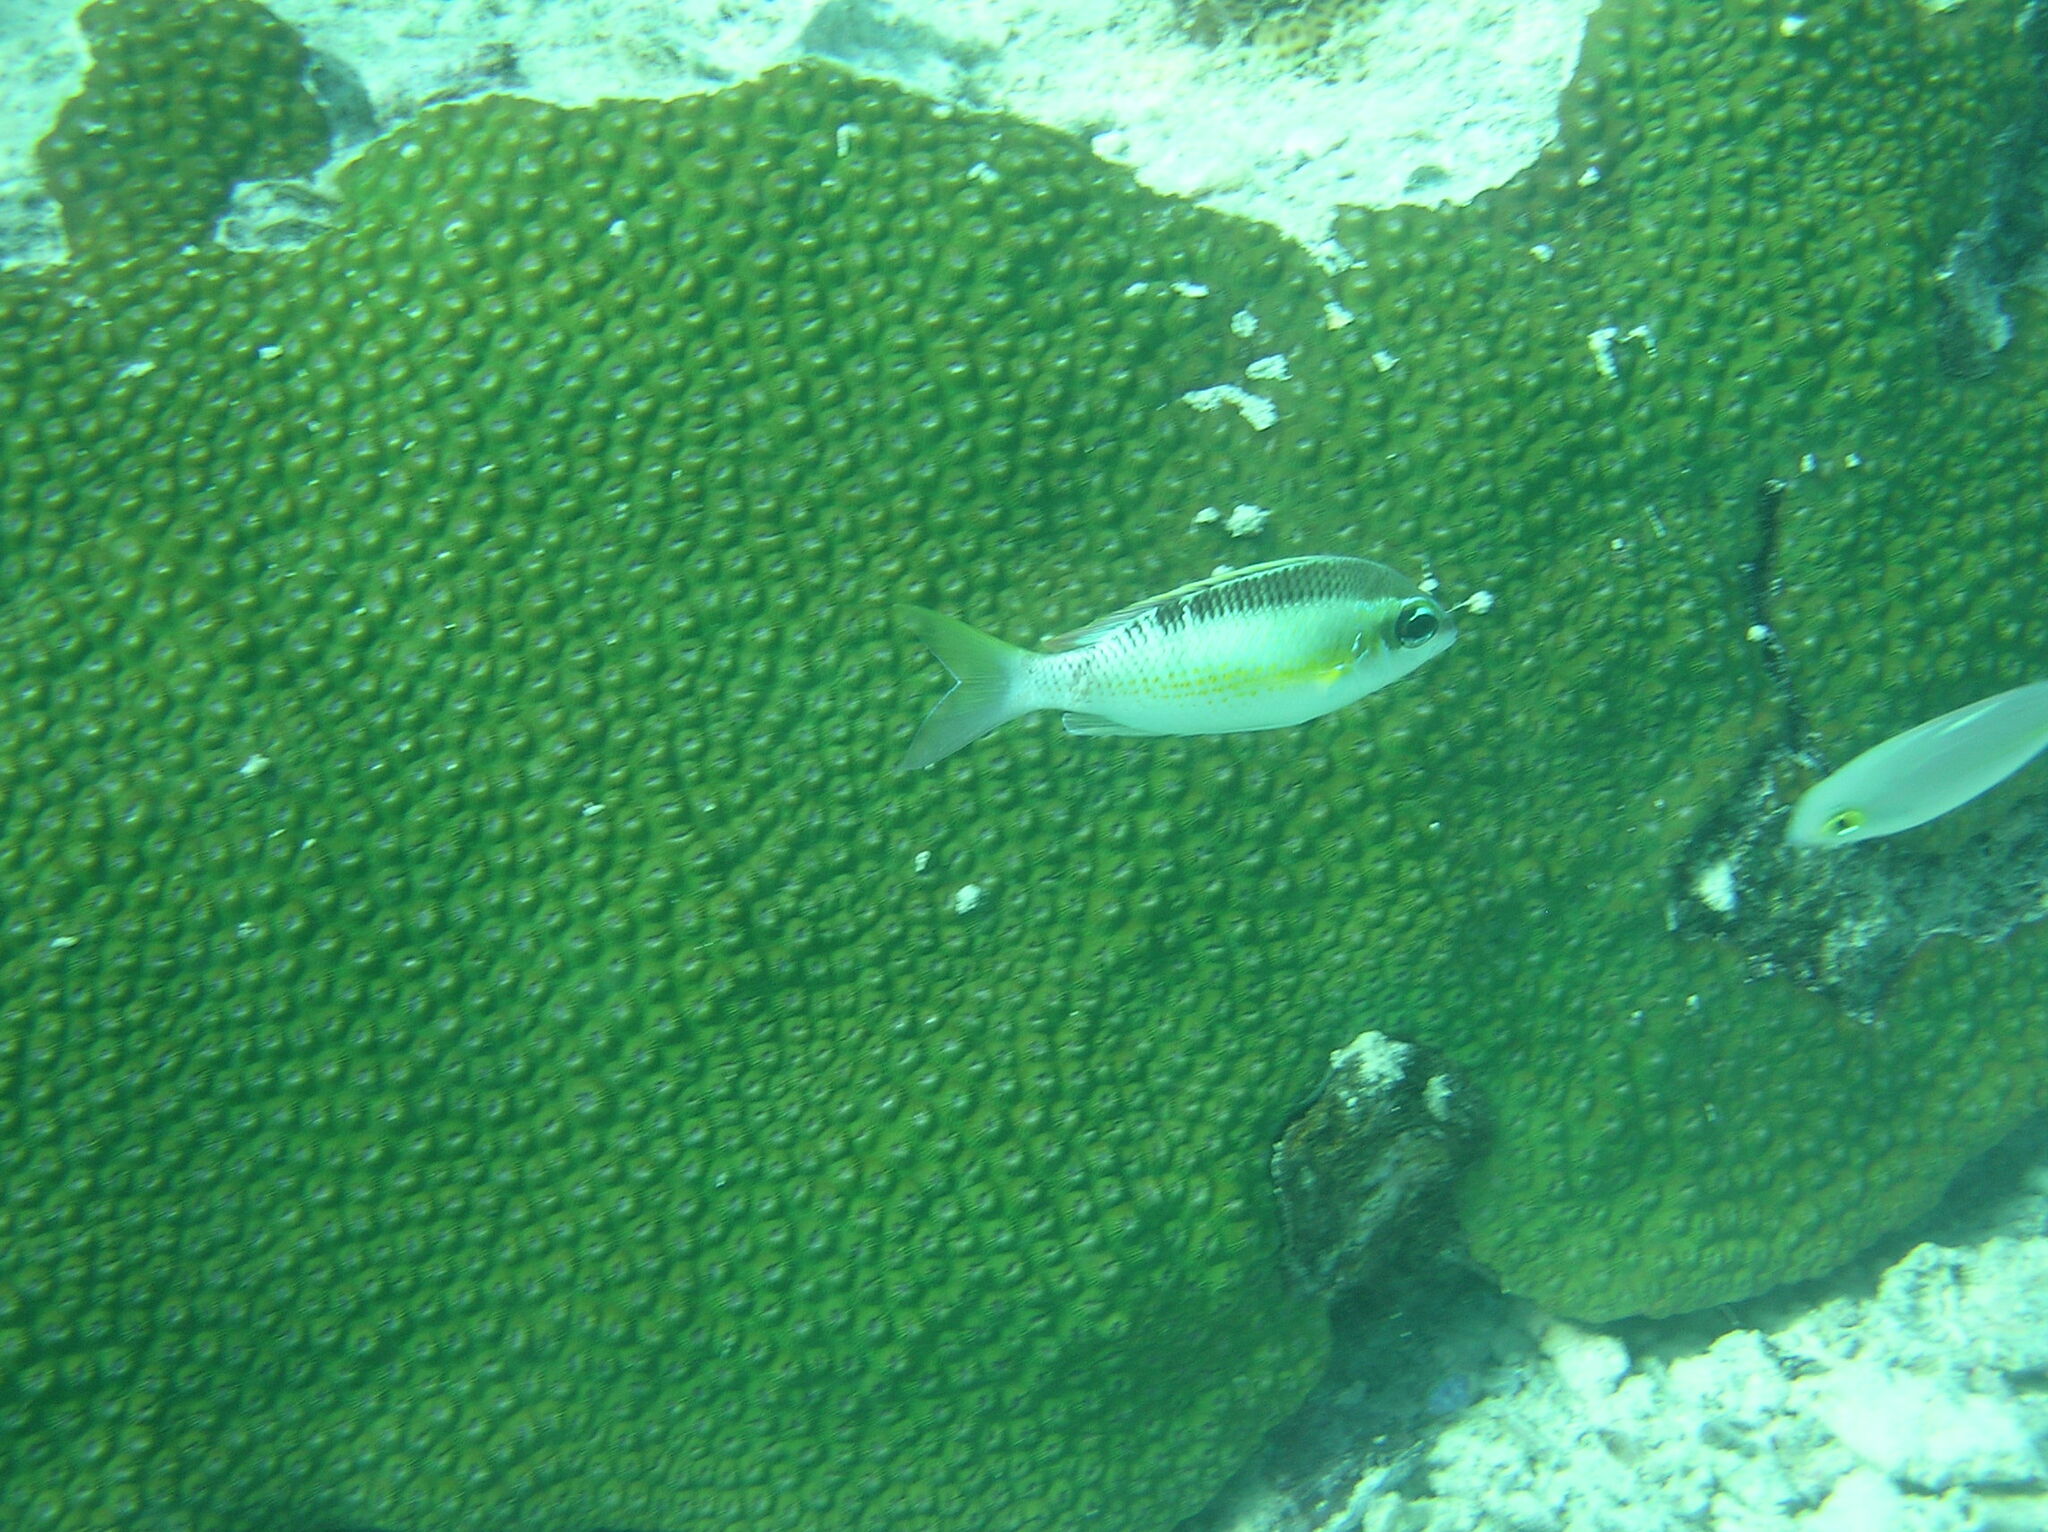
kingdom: Animalia
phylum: Chordata
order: Perciformes
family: Nemipteridae
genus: Scolopsis
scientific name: Scolopsis margaritifera
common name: Pearly monocle bream
